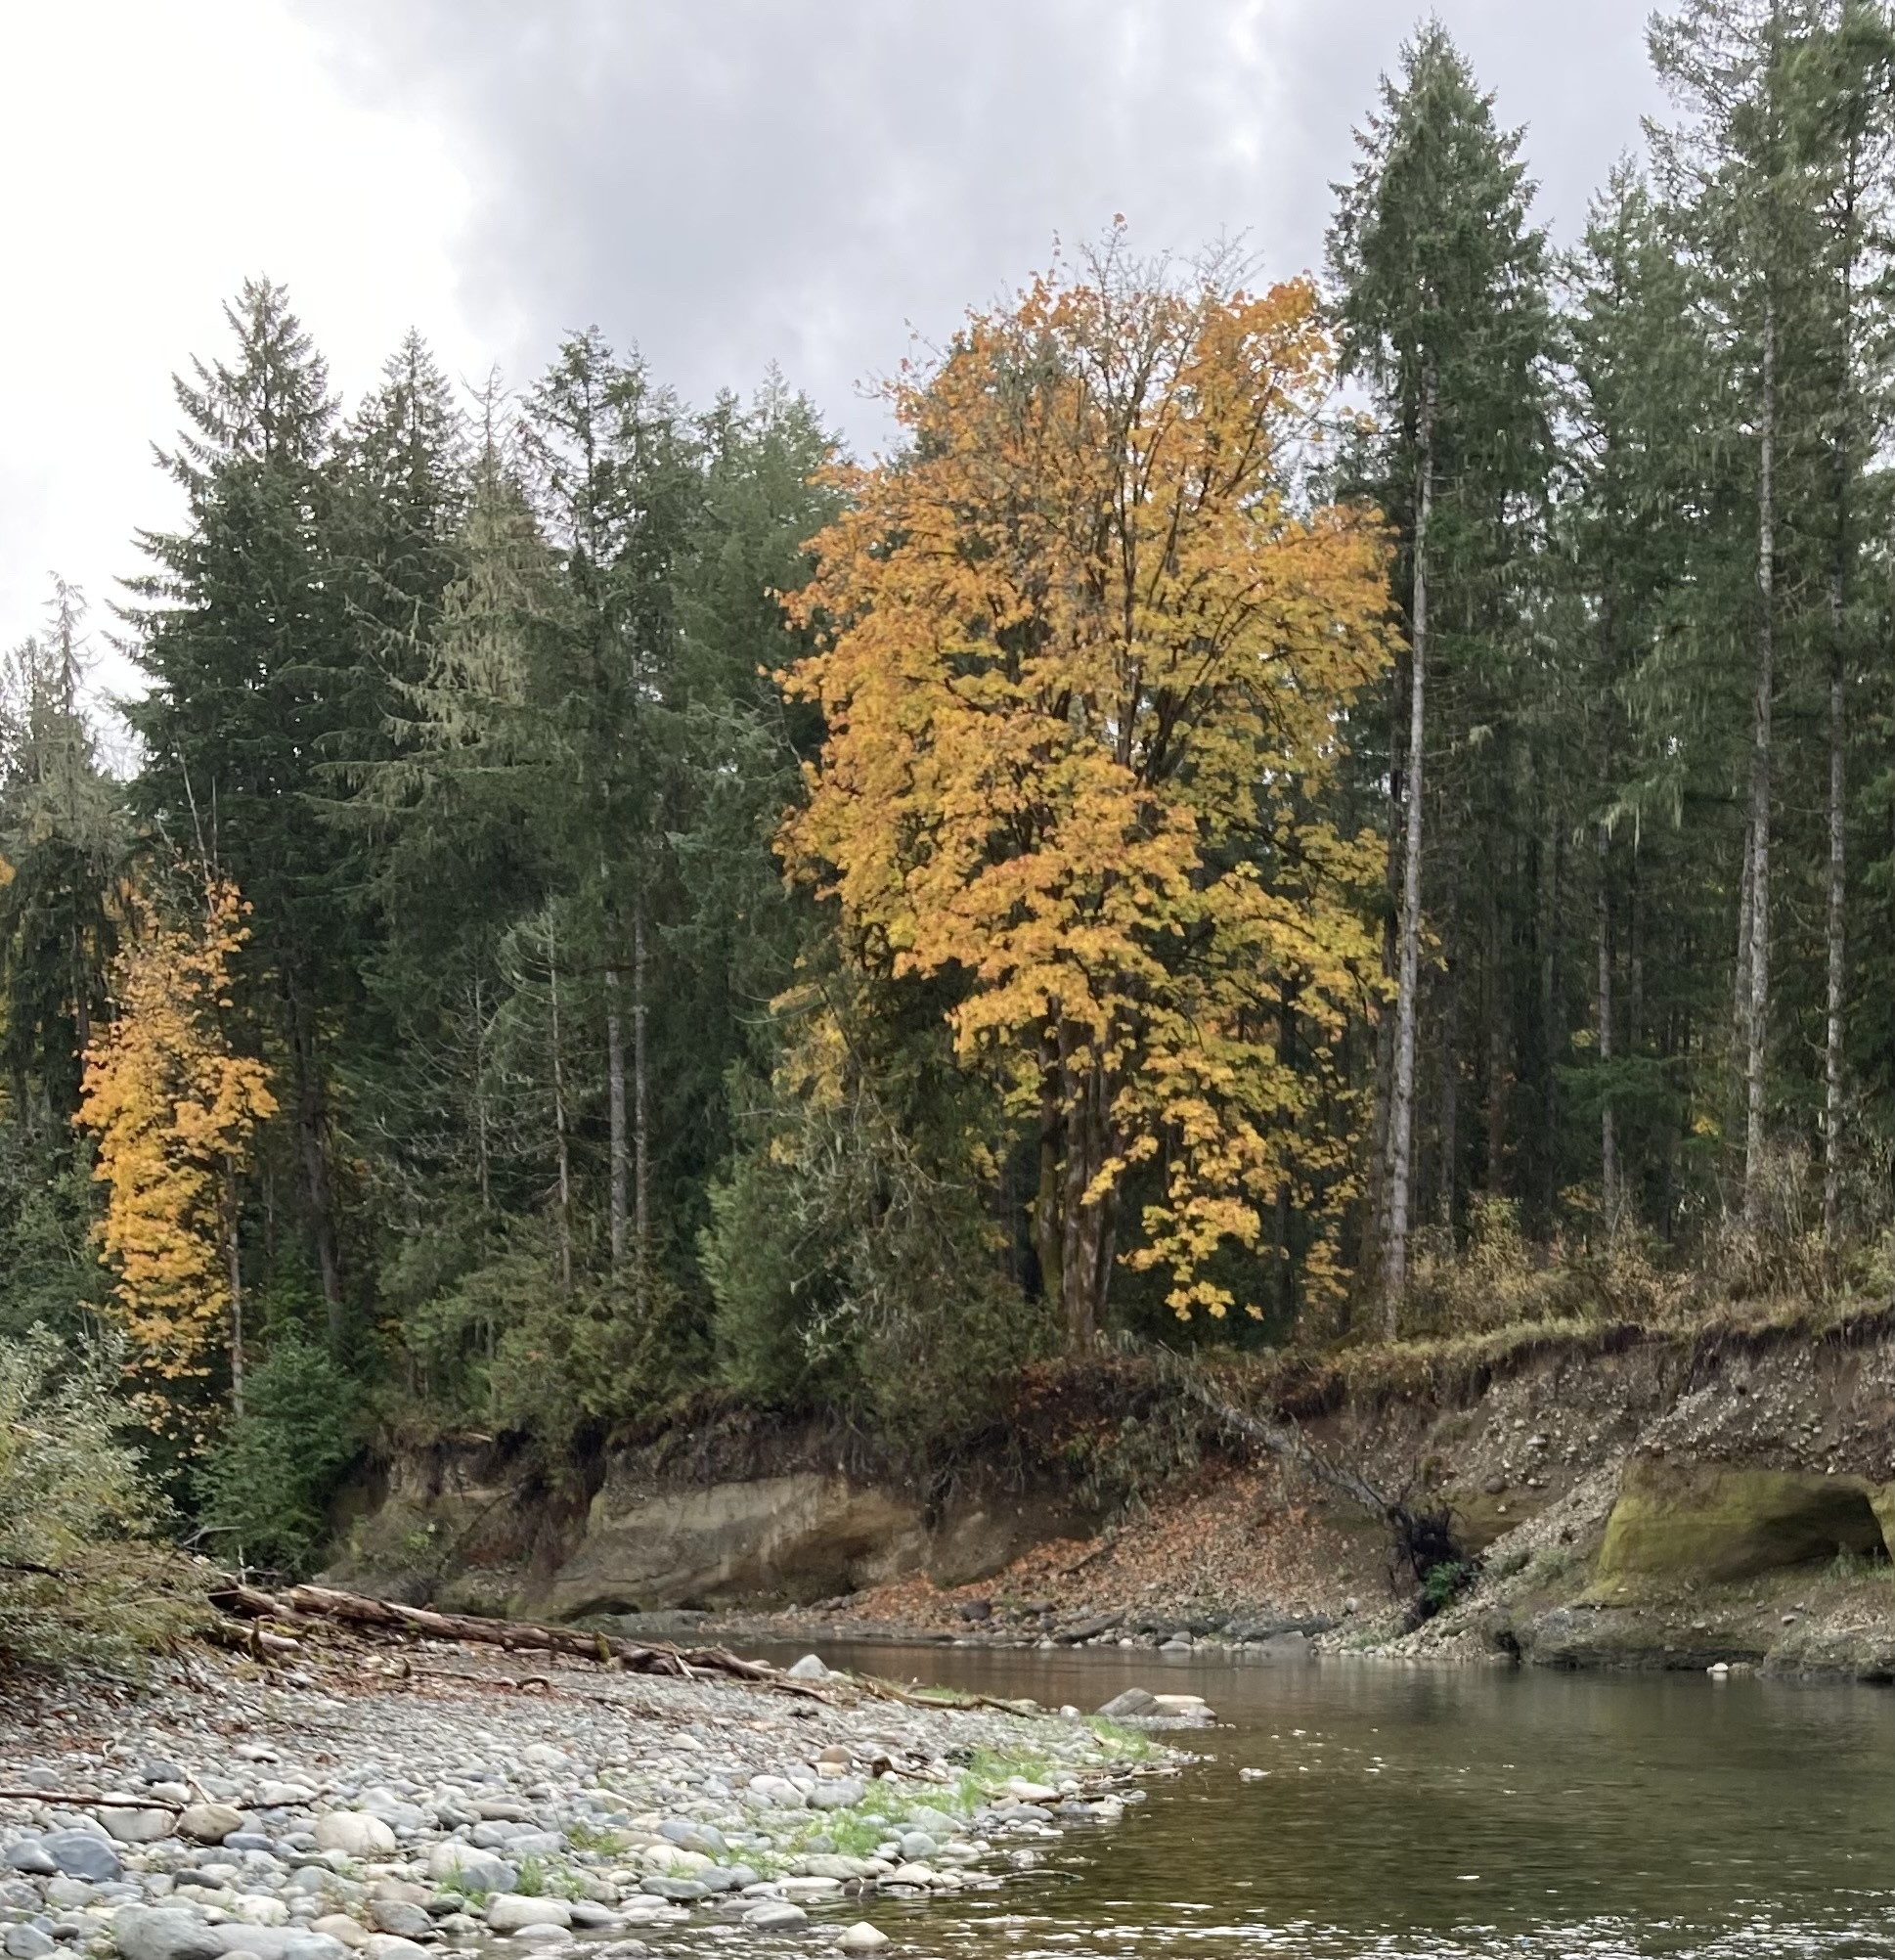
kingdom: Plantae
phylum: Tracheophyta
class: Magnoliopsida
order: Sapindales
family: Sapindaceae
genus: Acer
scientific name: Acer macrophyllum
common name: Oregon maple
